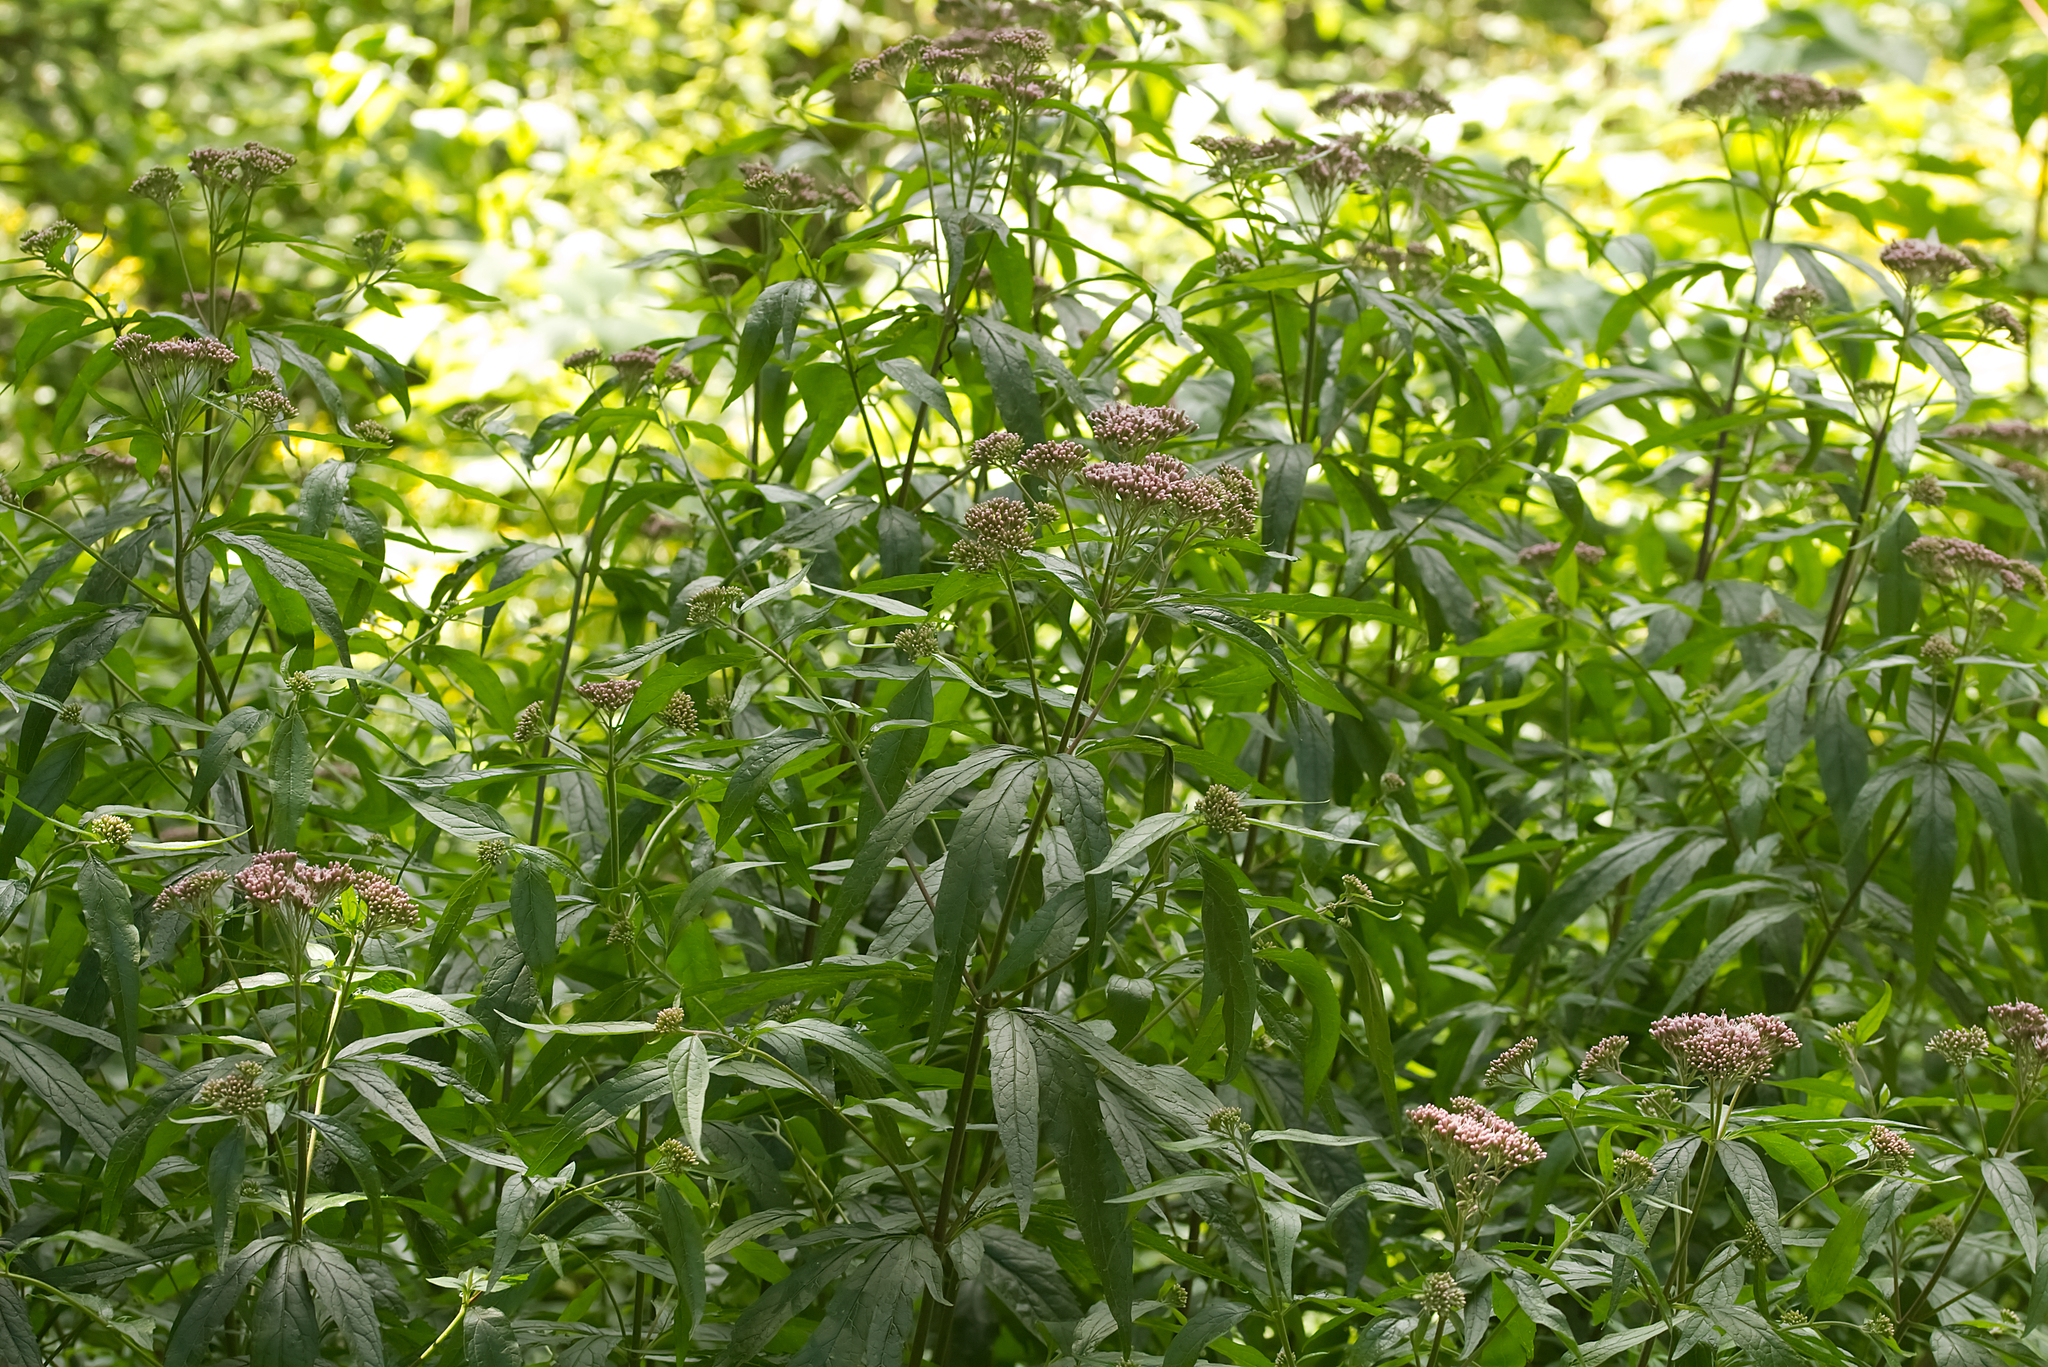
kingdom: Plantae
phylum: Tracheophyta
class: Magnoliopsida
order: Asterales
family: Asteraceae
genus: Eupatorium
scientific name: Eupatorium cannabinum
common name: Hemp-agrimony
